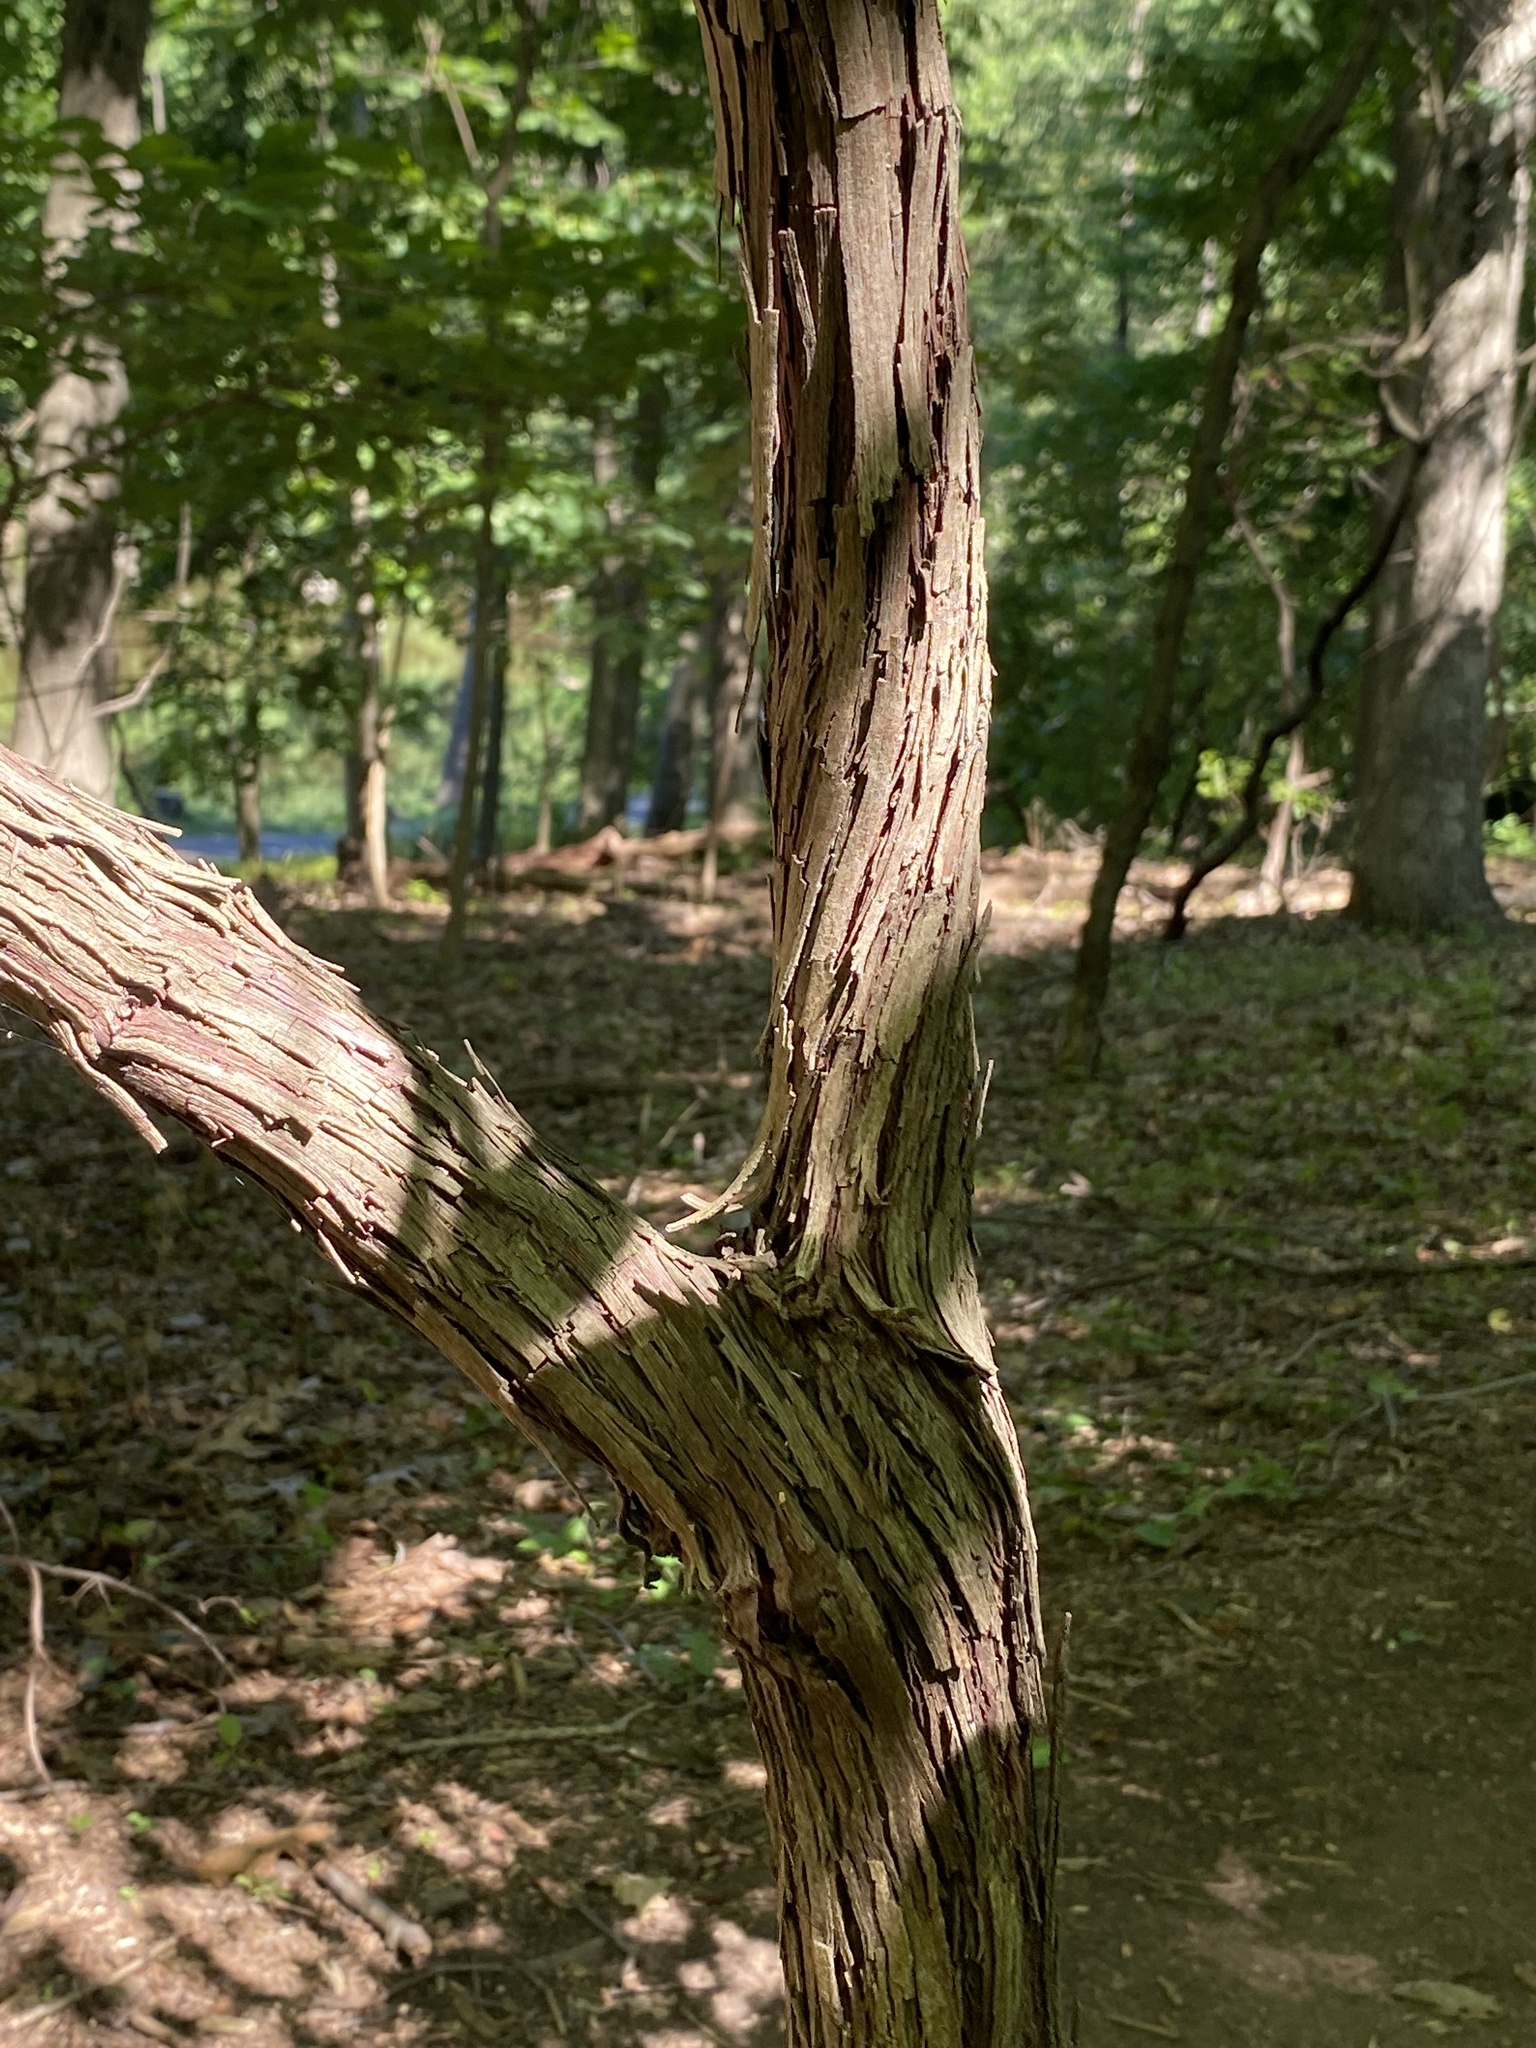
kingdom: Plantae
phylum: Tracheophyta
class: Magnoliopsida
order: Vitales
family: Vitaceae
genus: Vitis
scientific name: Vitis
